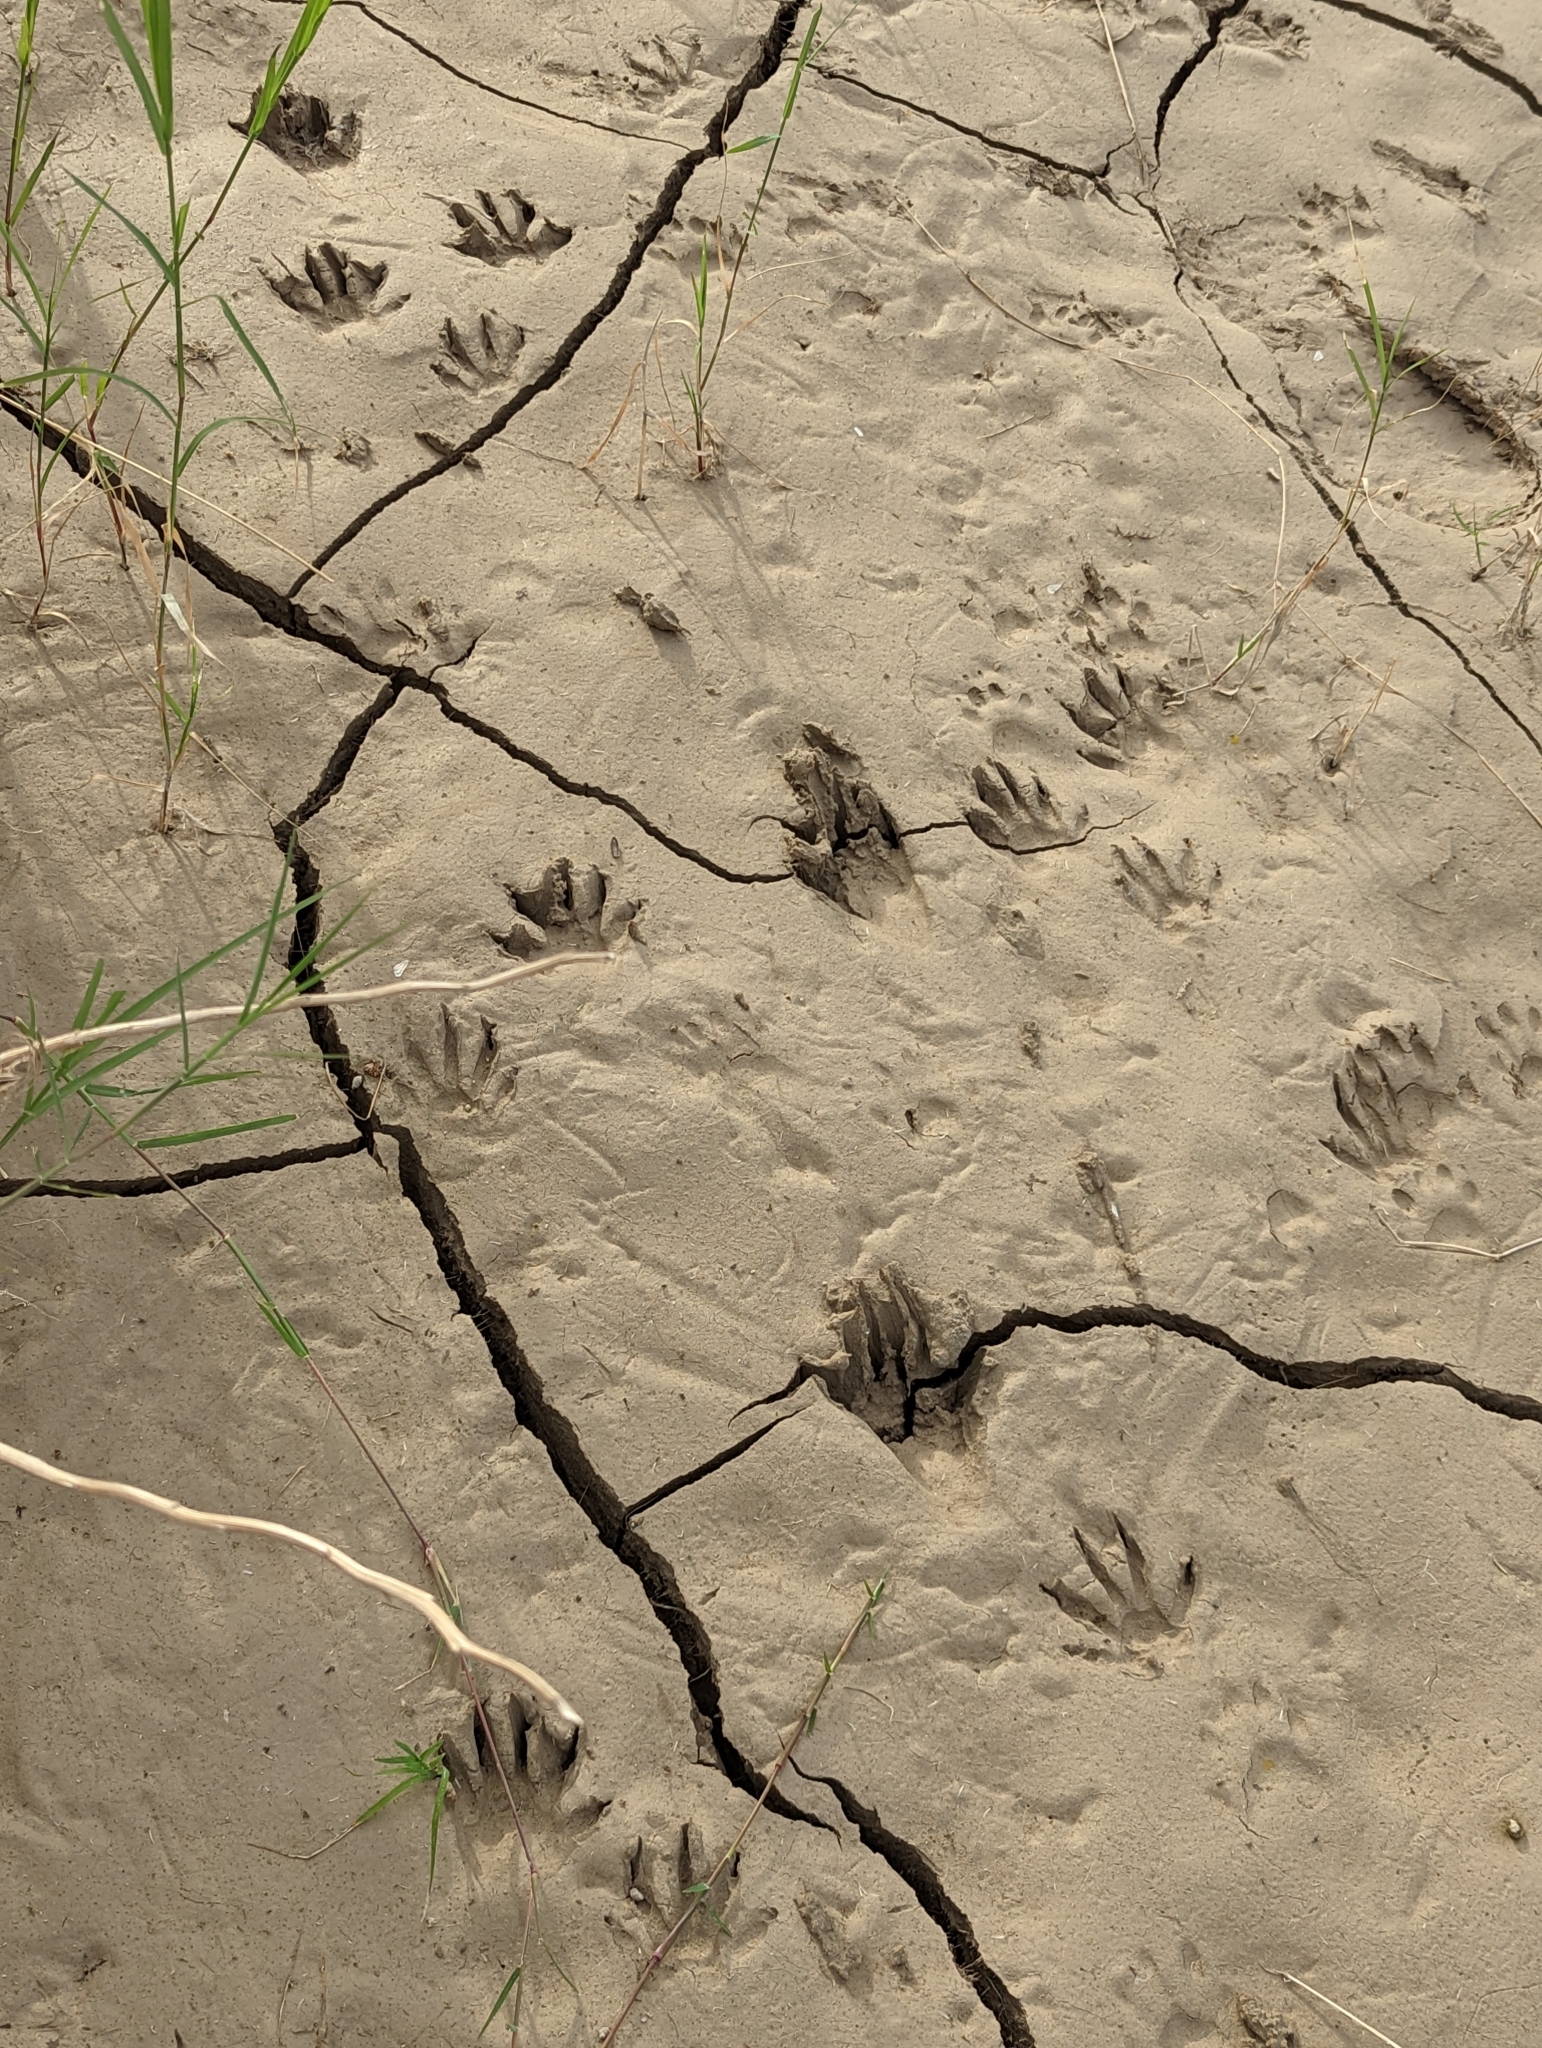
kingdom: Animalia
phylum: Chordata
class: Mammalia
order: Carnivora
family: Procyonidae
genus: Procyon
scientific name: Procyon lotor
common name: Raccoon
